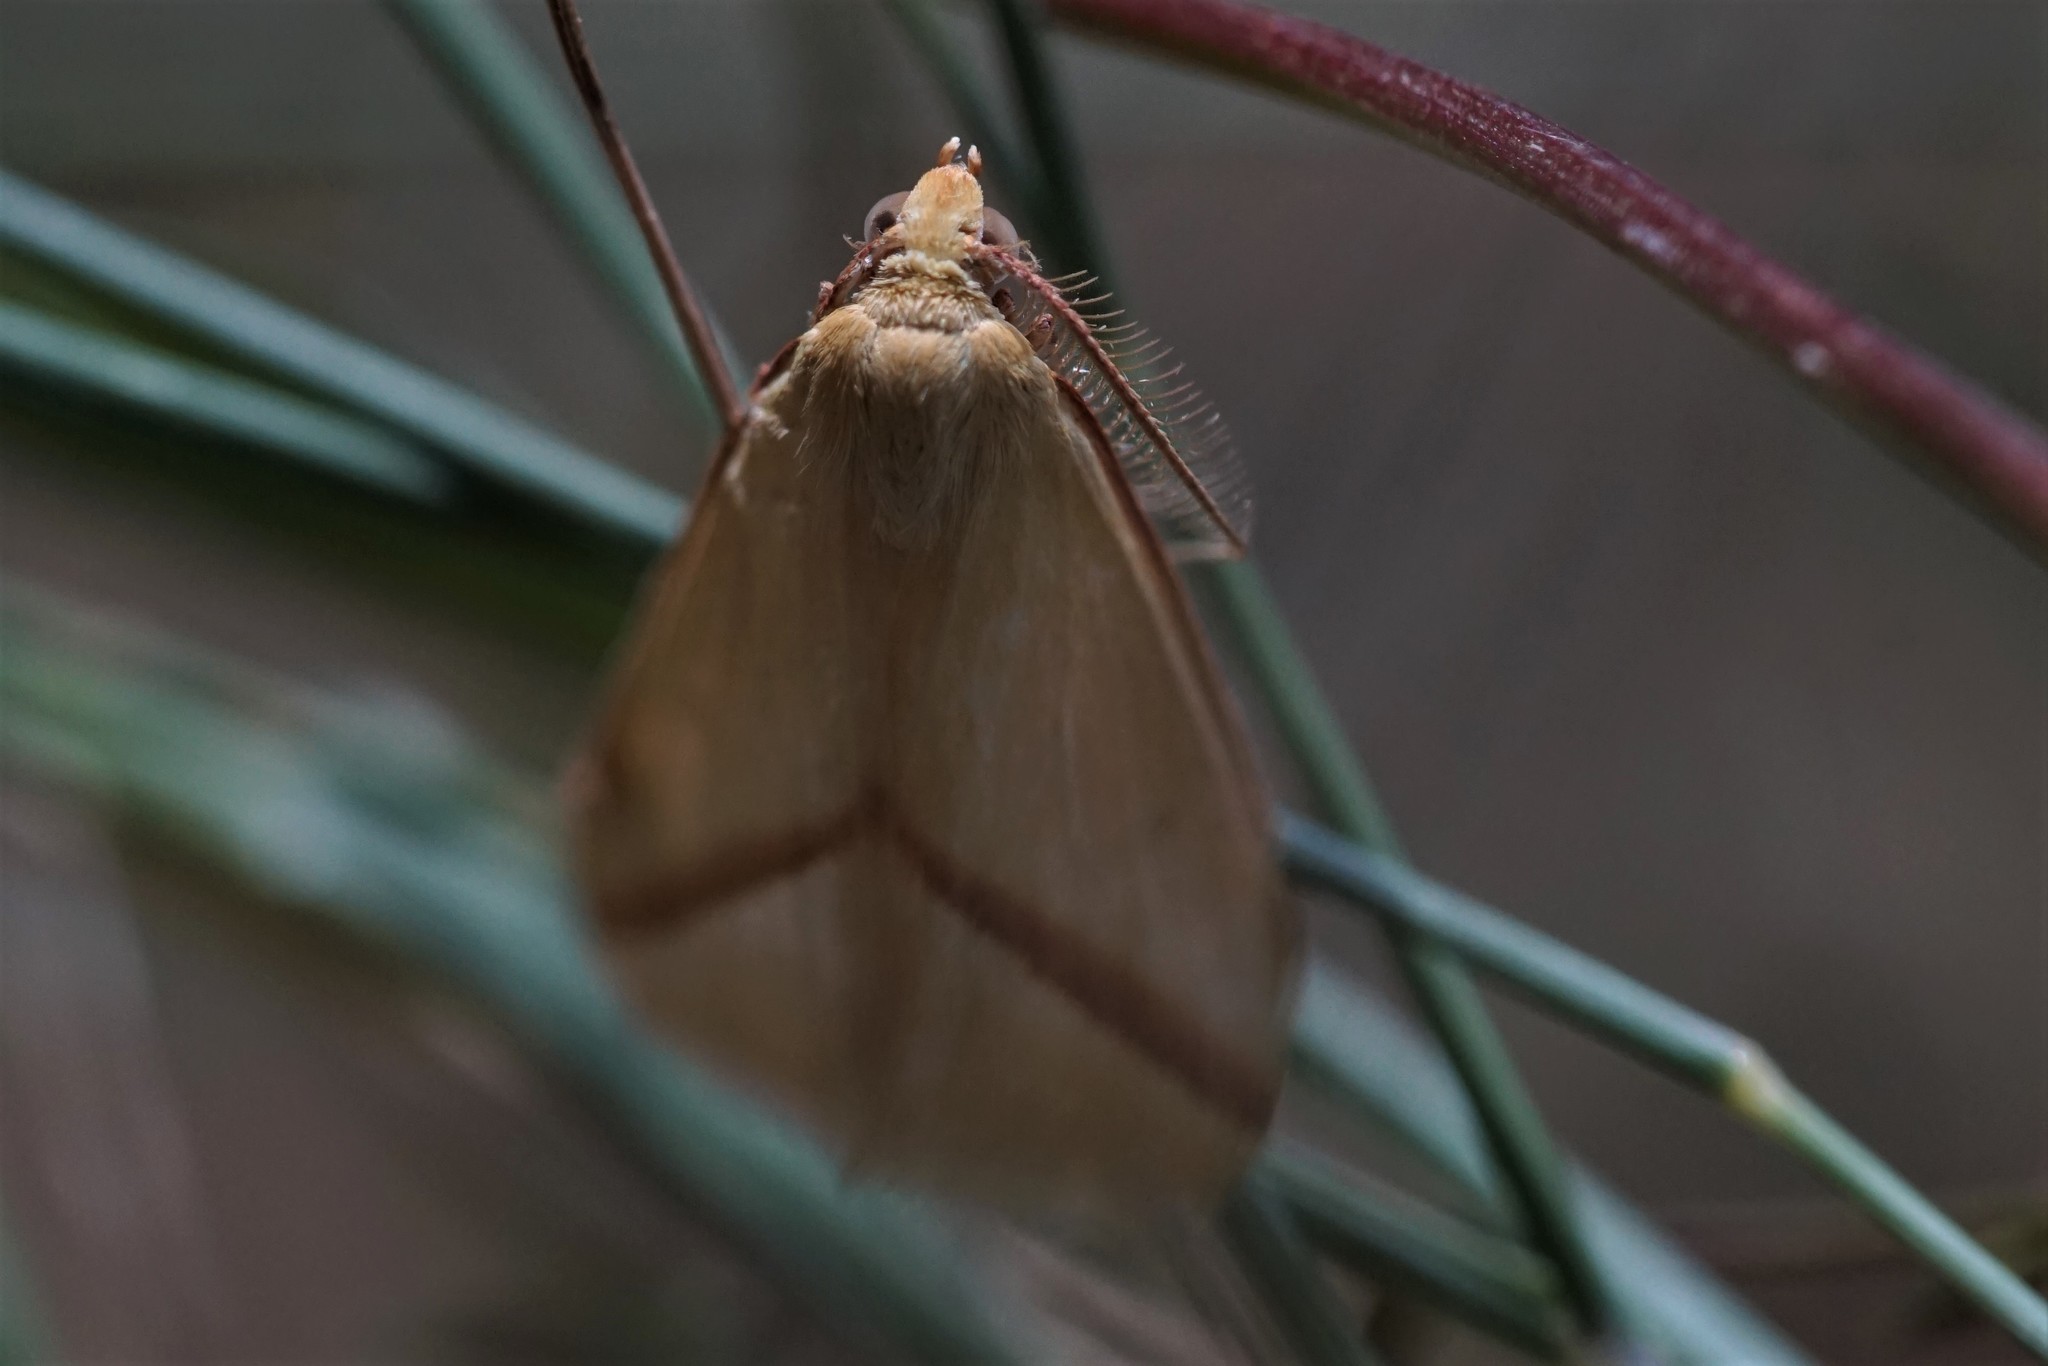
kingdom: Animalia
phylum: Arthropoda
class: Insecta
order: Lepidoptera
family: Geometridae
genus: Rhodometra
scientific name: Rhodometra sacraria
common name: Vestal
